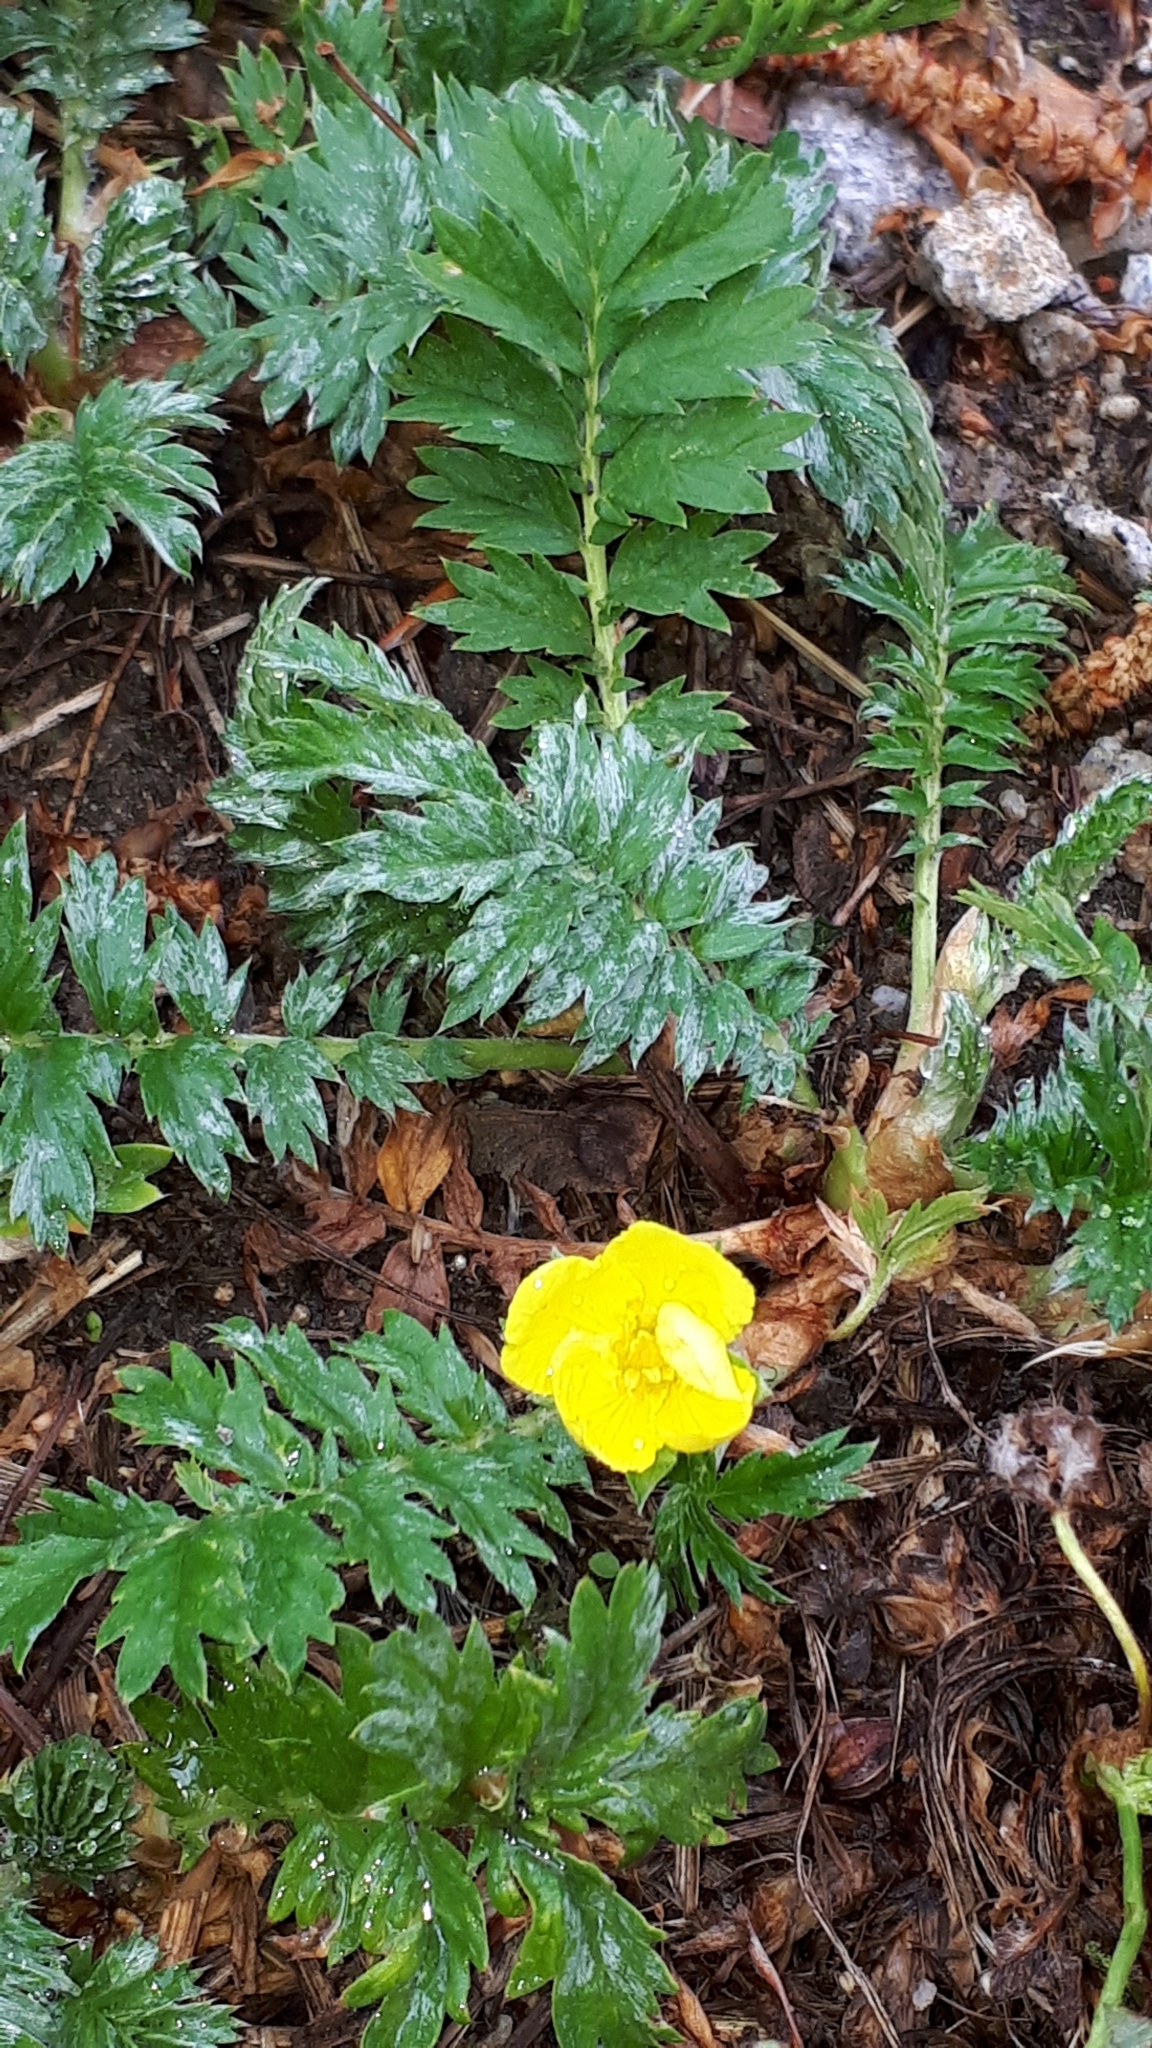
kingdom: Plantae
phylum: Tracheophyta
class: Magnoliopsida
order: Rosales
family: Rosaceae
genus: Argentina
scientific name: Argentina anserina
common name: Common silverweed
